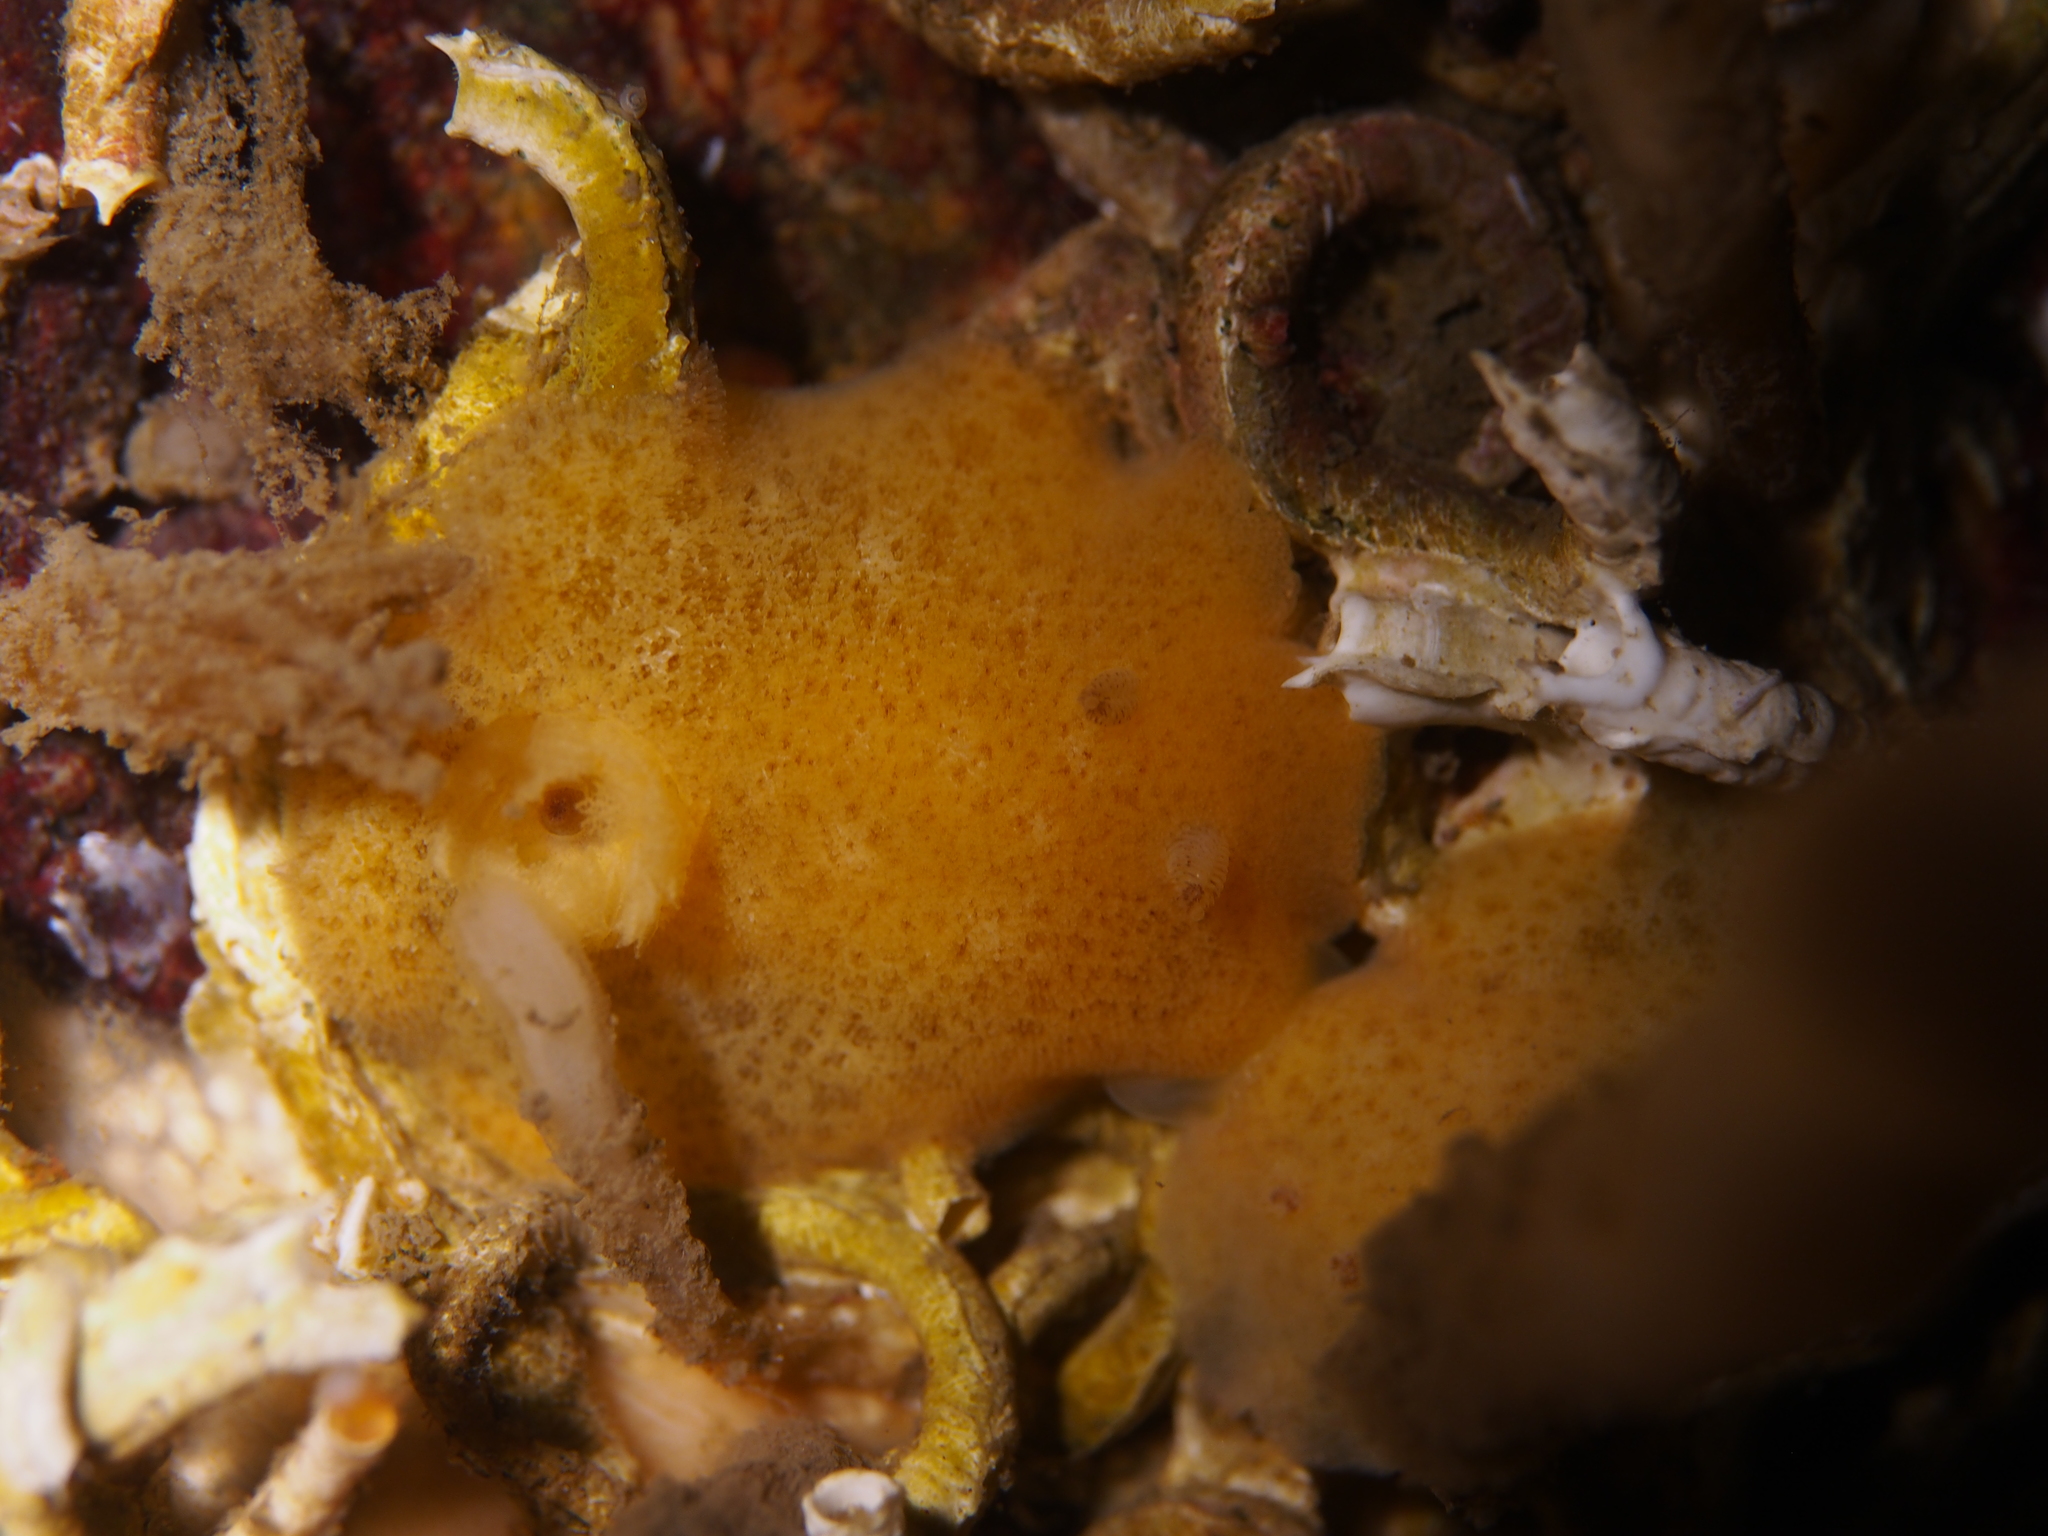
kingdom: Animalia
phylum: Mollusca
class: Gastropoda
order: Nudibranchia
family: Discodorididae
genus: Jorunna
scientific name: Jorunna tomentosa
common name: Grey sea slug
